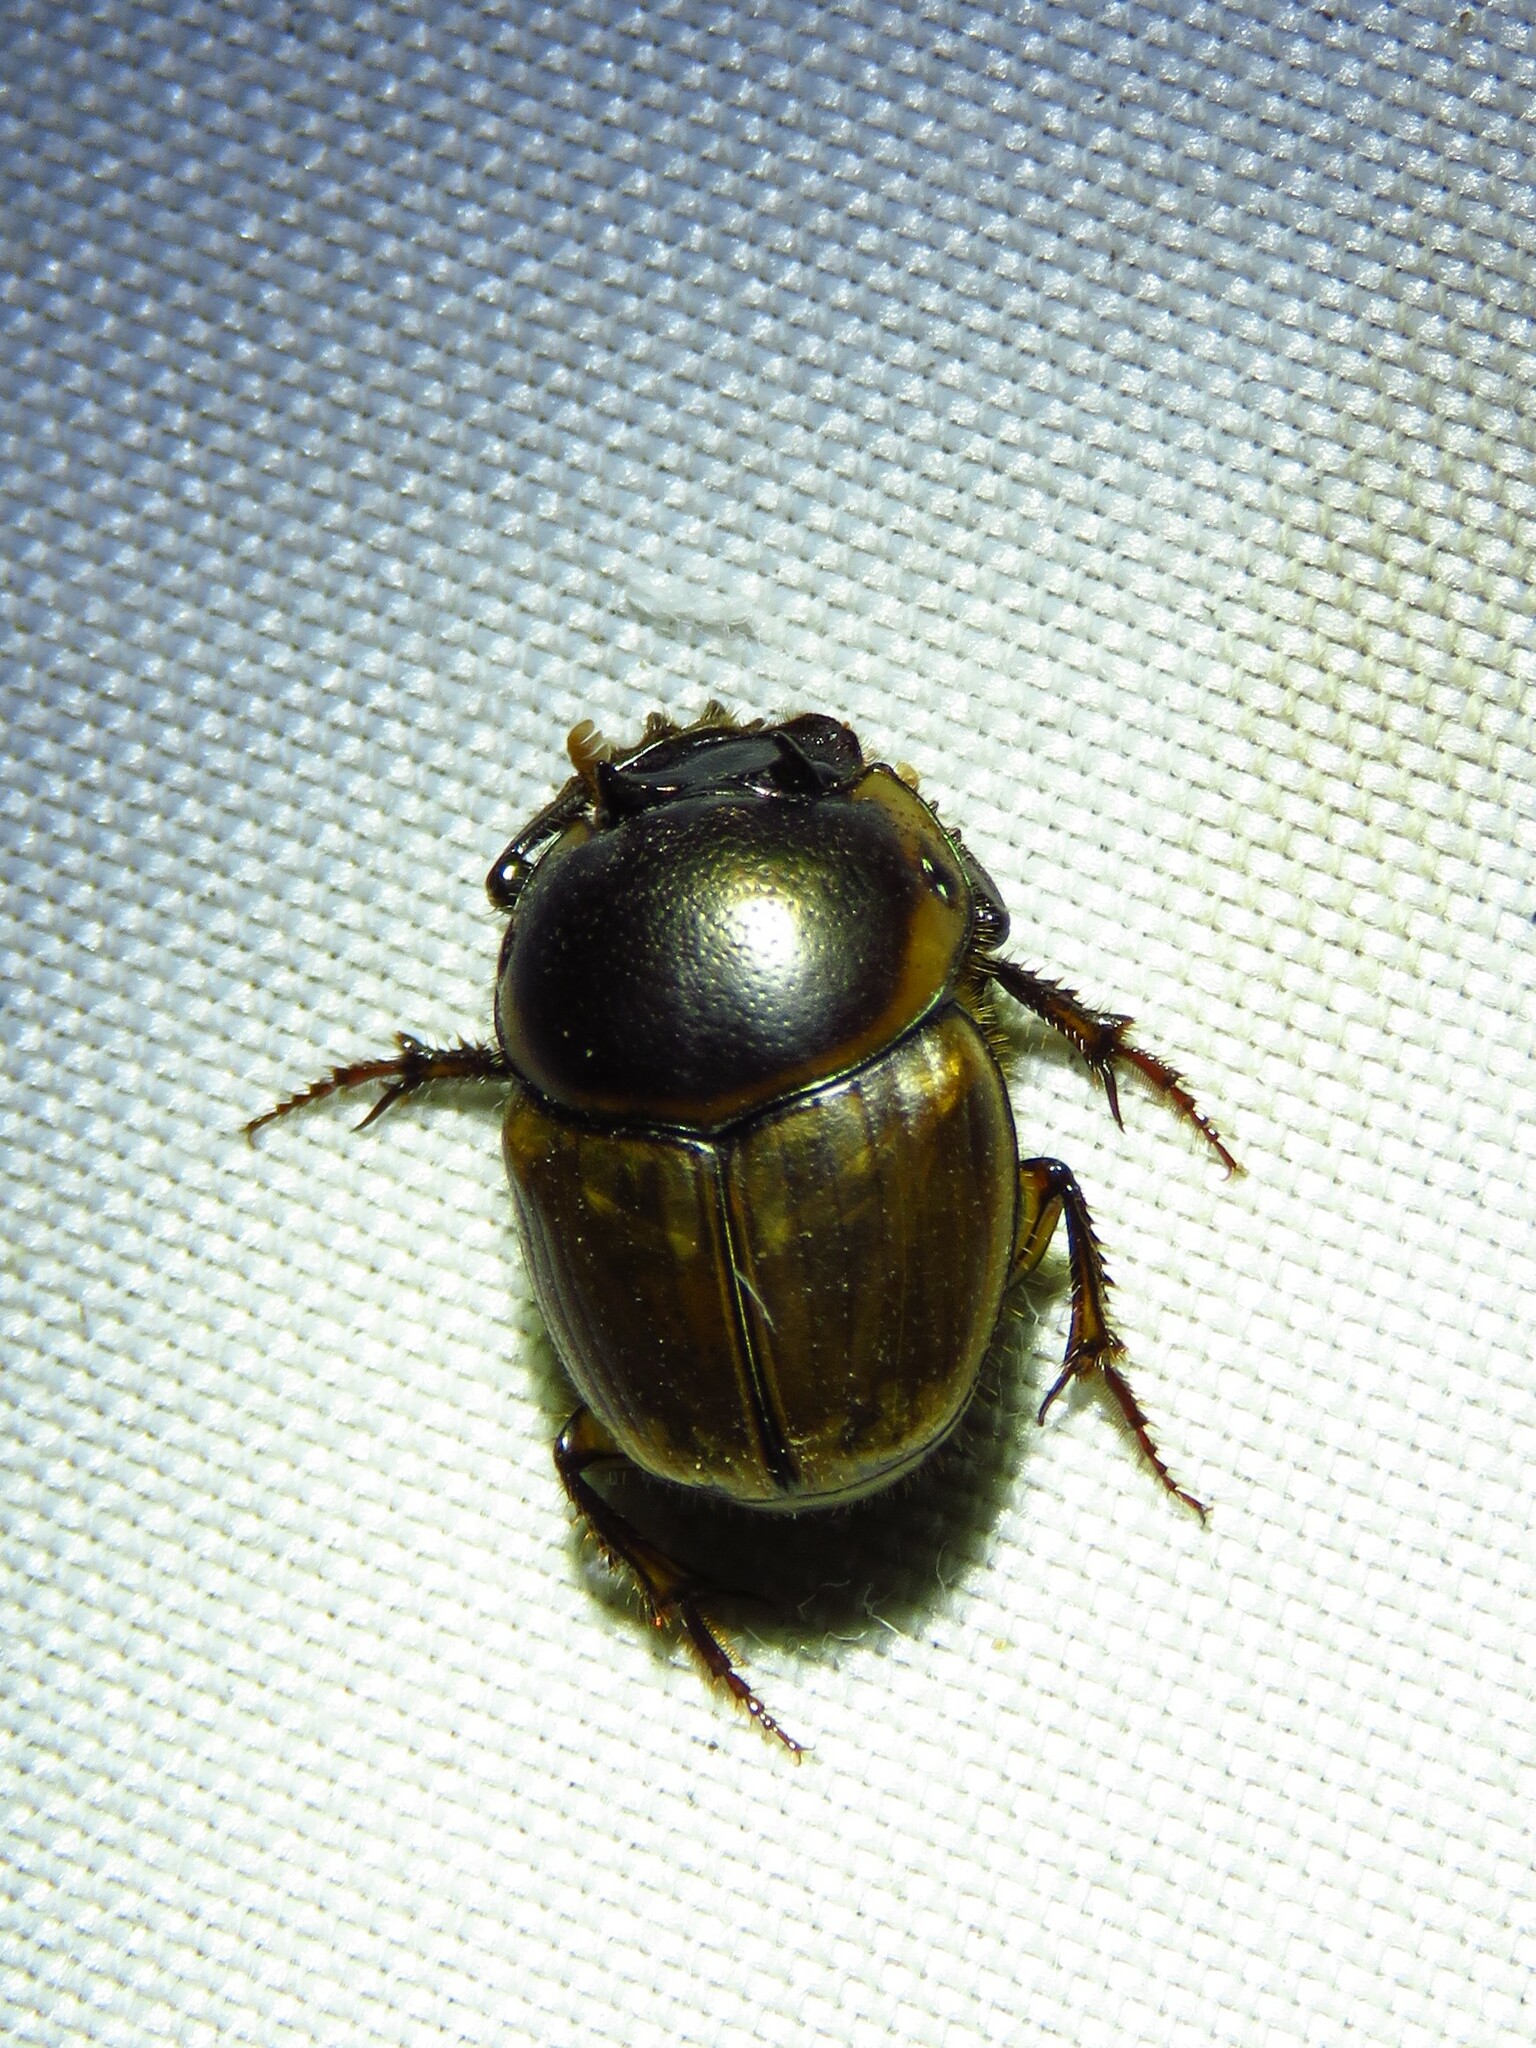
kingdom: Animalia
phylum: Arthropoda
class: Insecta
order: Coleoptera
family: Scarabaeidae
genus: Digitonthophagus
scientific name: Digitonthophagus gazella
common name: Brown dung beetle
